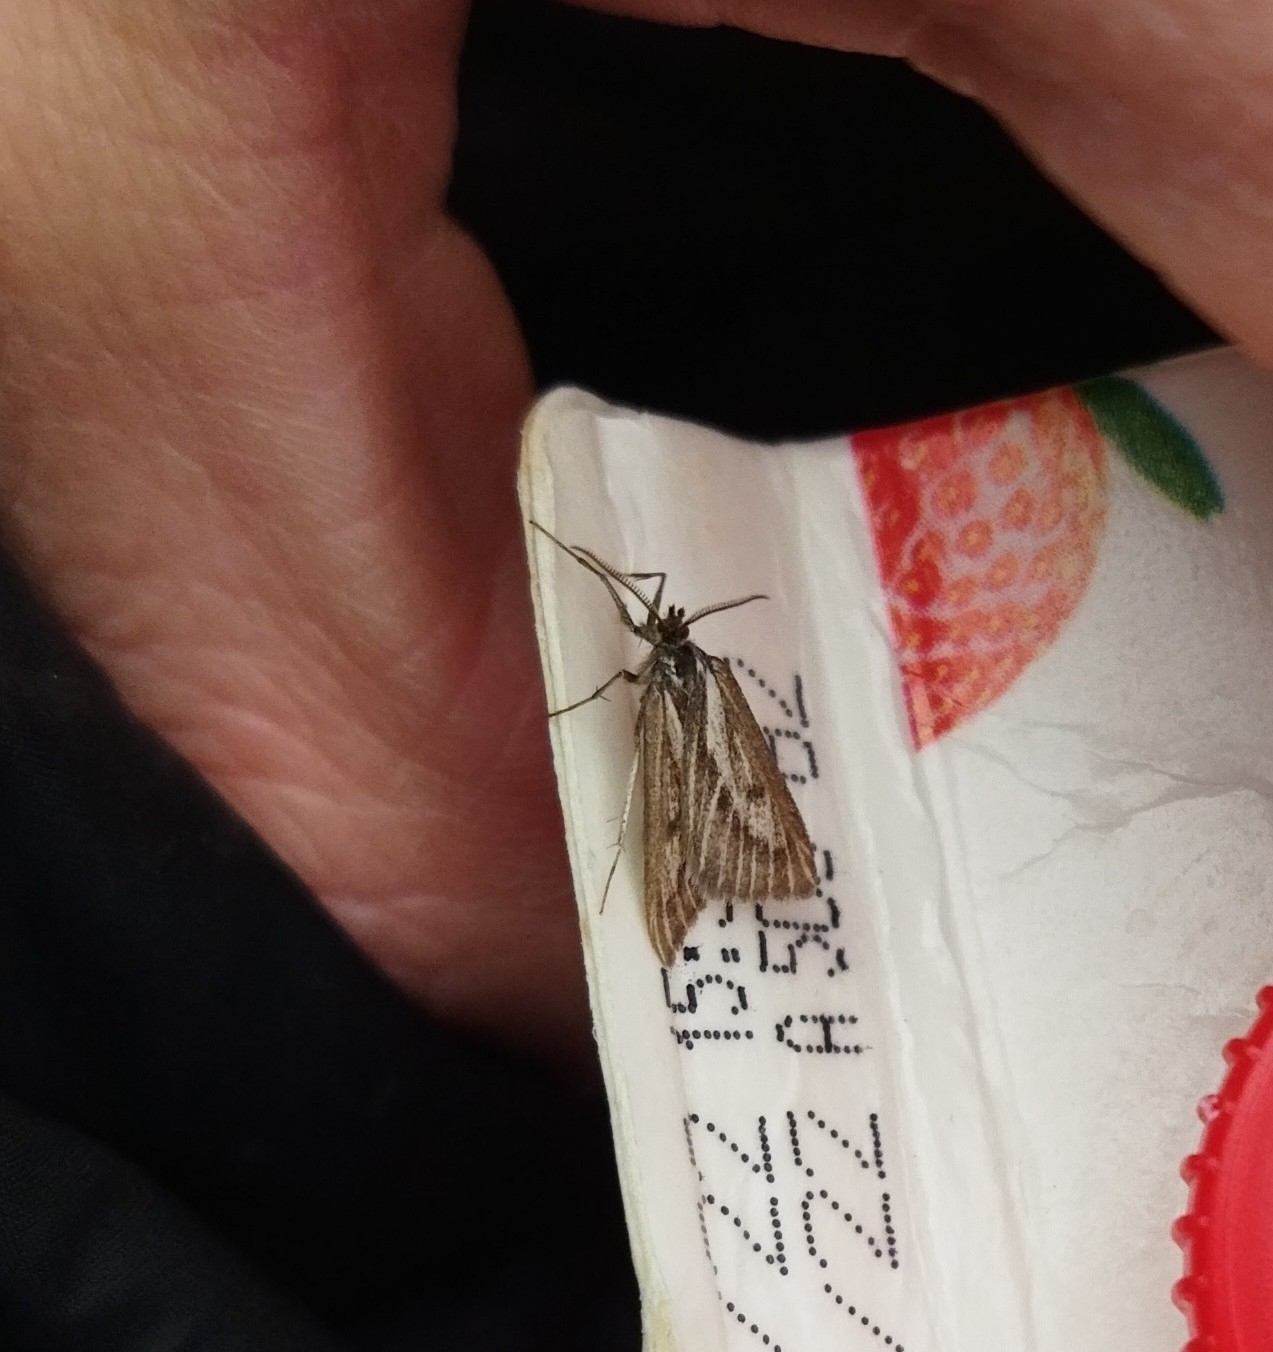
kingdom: Animalia
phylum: Arthropoda
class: Insecta
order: Lepidoptera
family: Geometridae
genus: Ithysia
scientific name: Ithysia pravata
